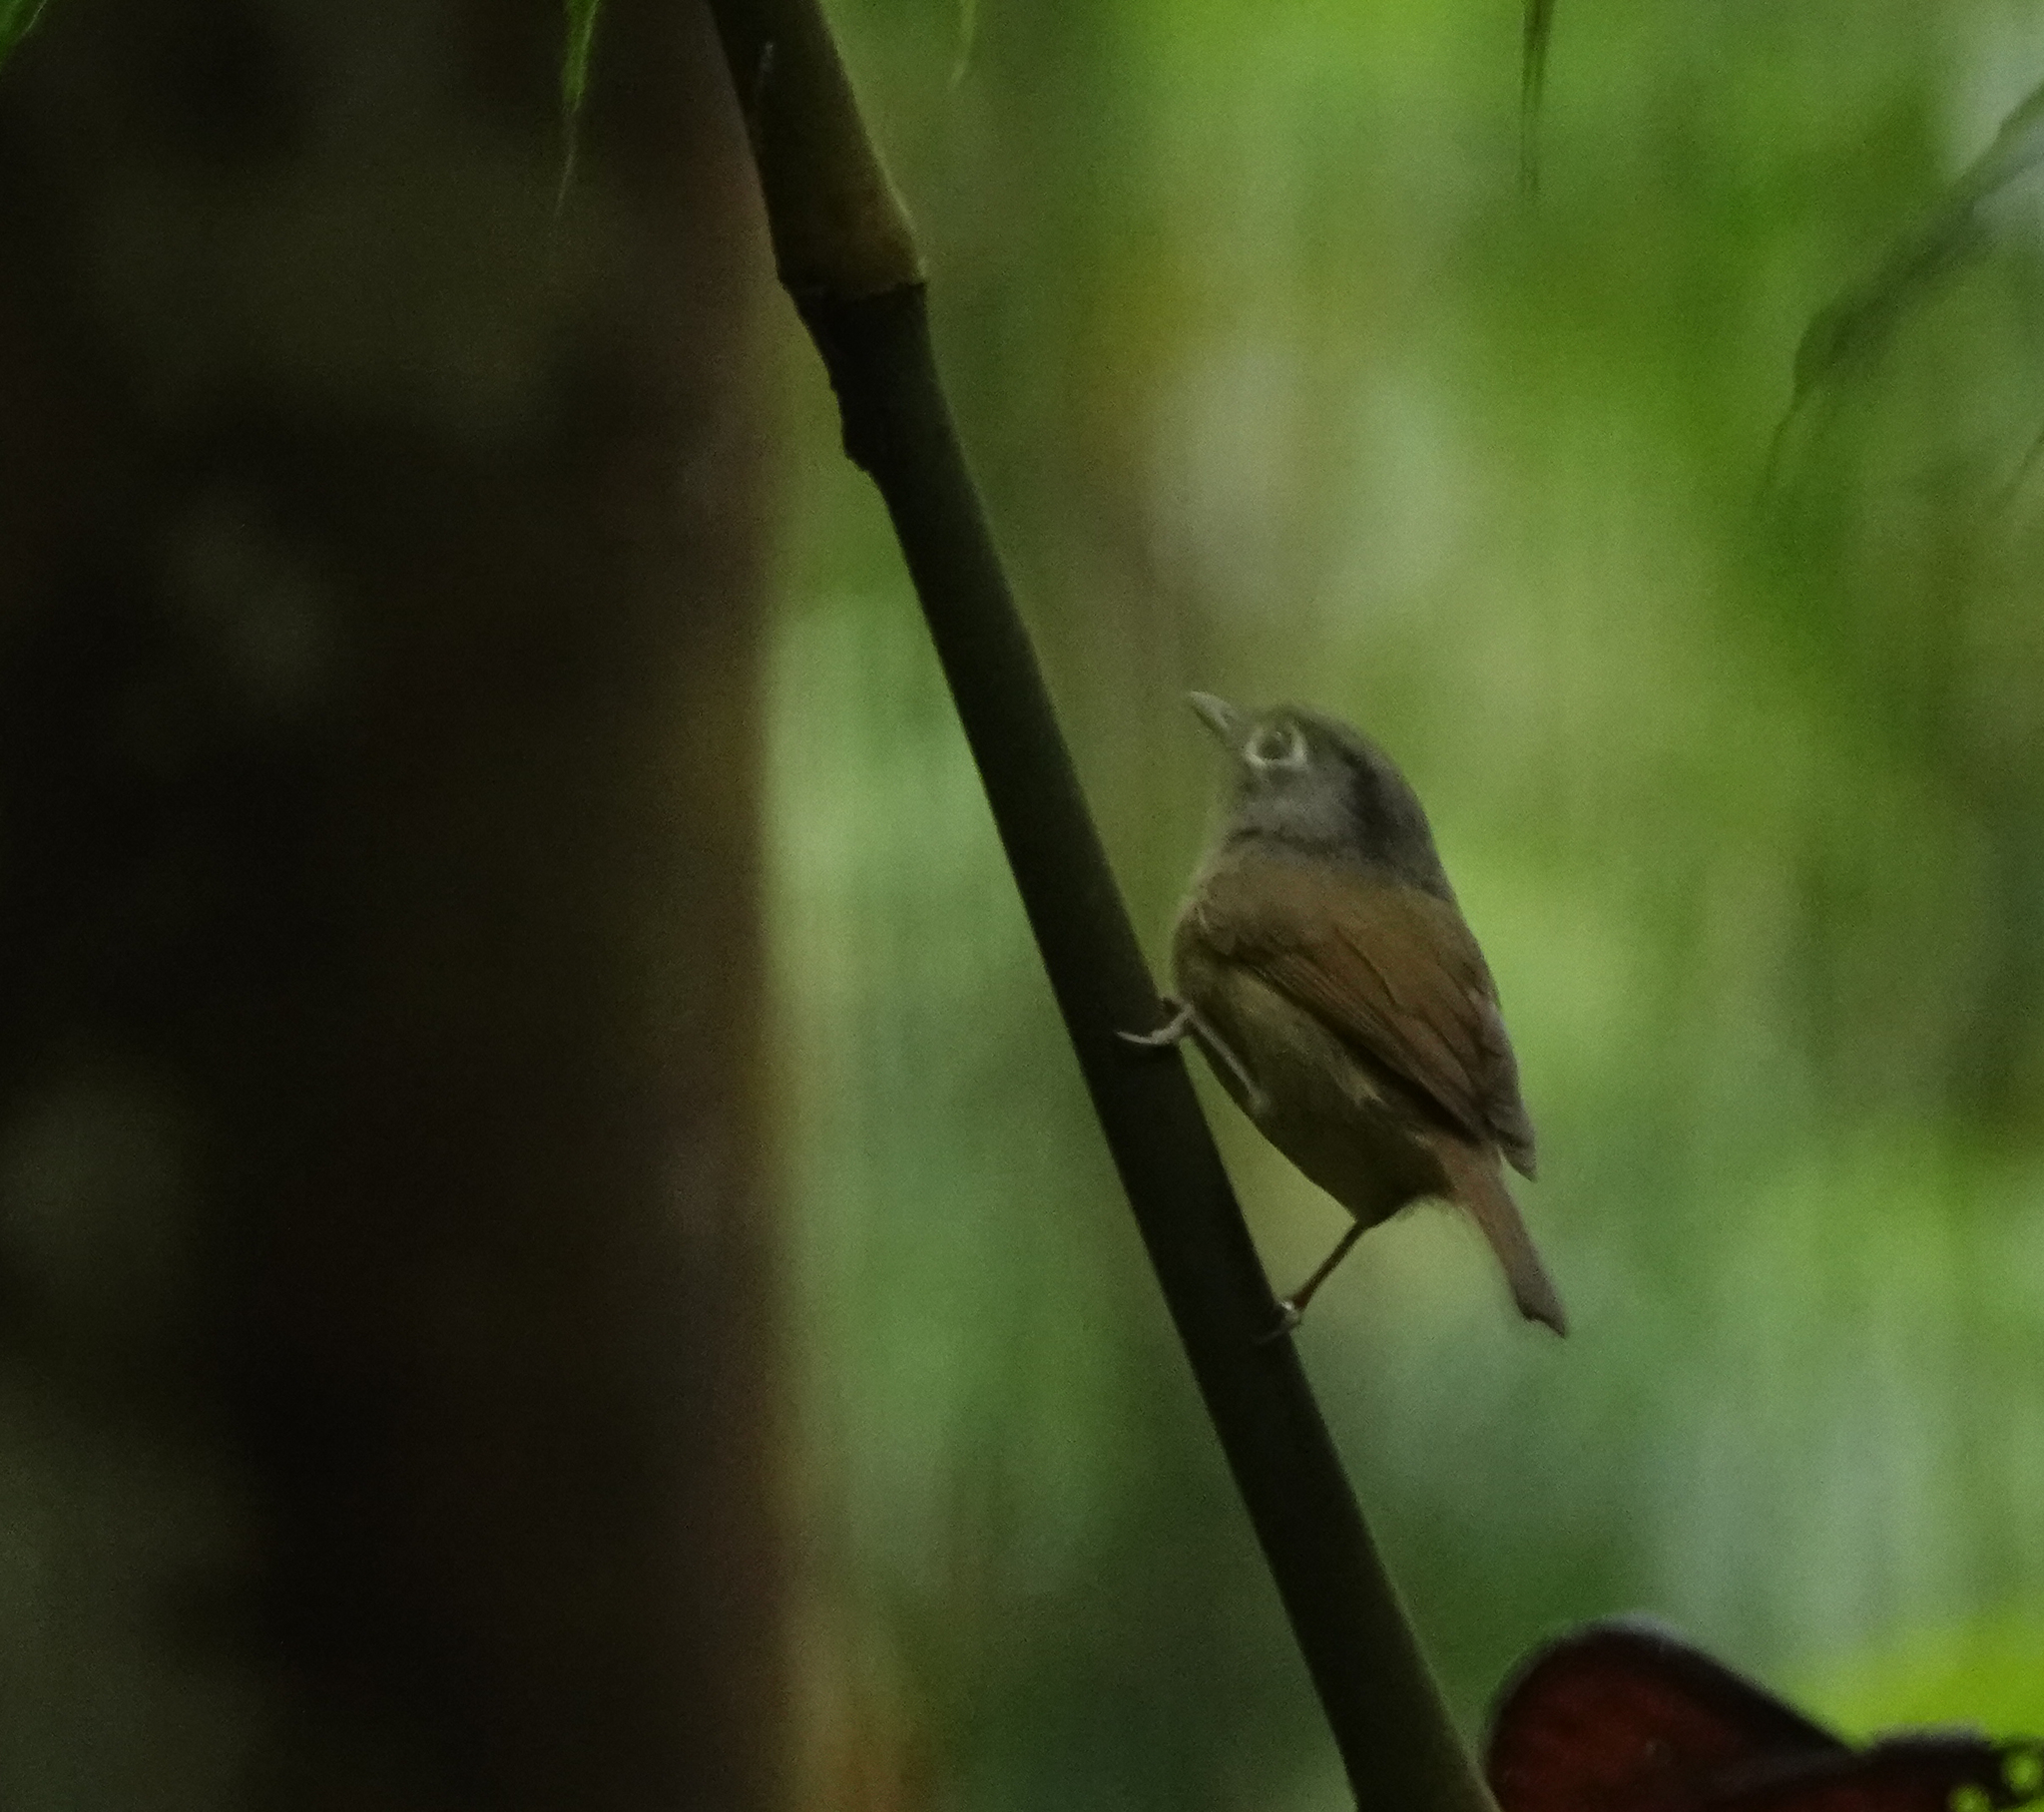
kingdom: Animalia
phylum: Chordata
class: Aves
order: Passeriformes
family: Pellorneidae
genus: Alcippe
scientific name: Alcippe nipalensis
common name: Nepal fulvetta
